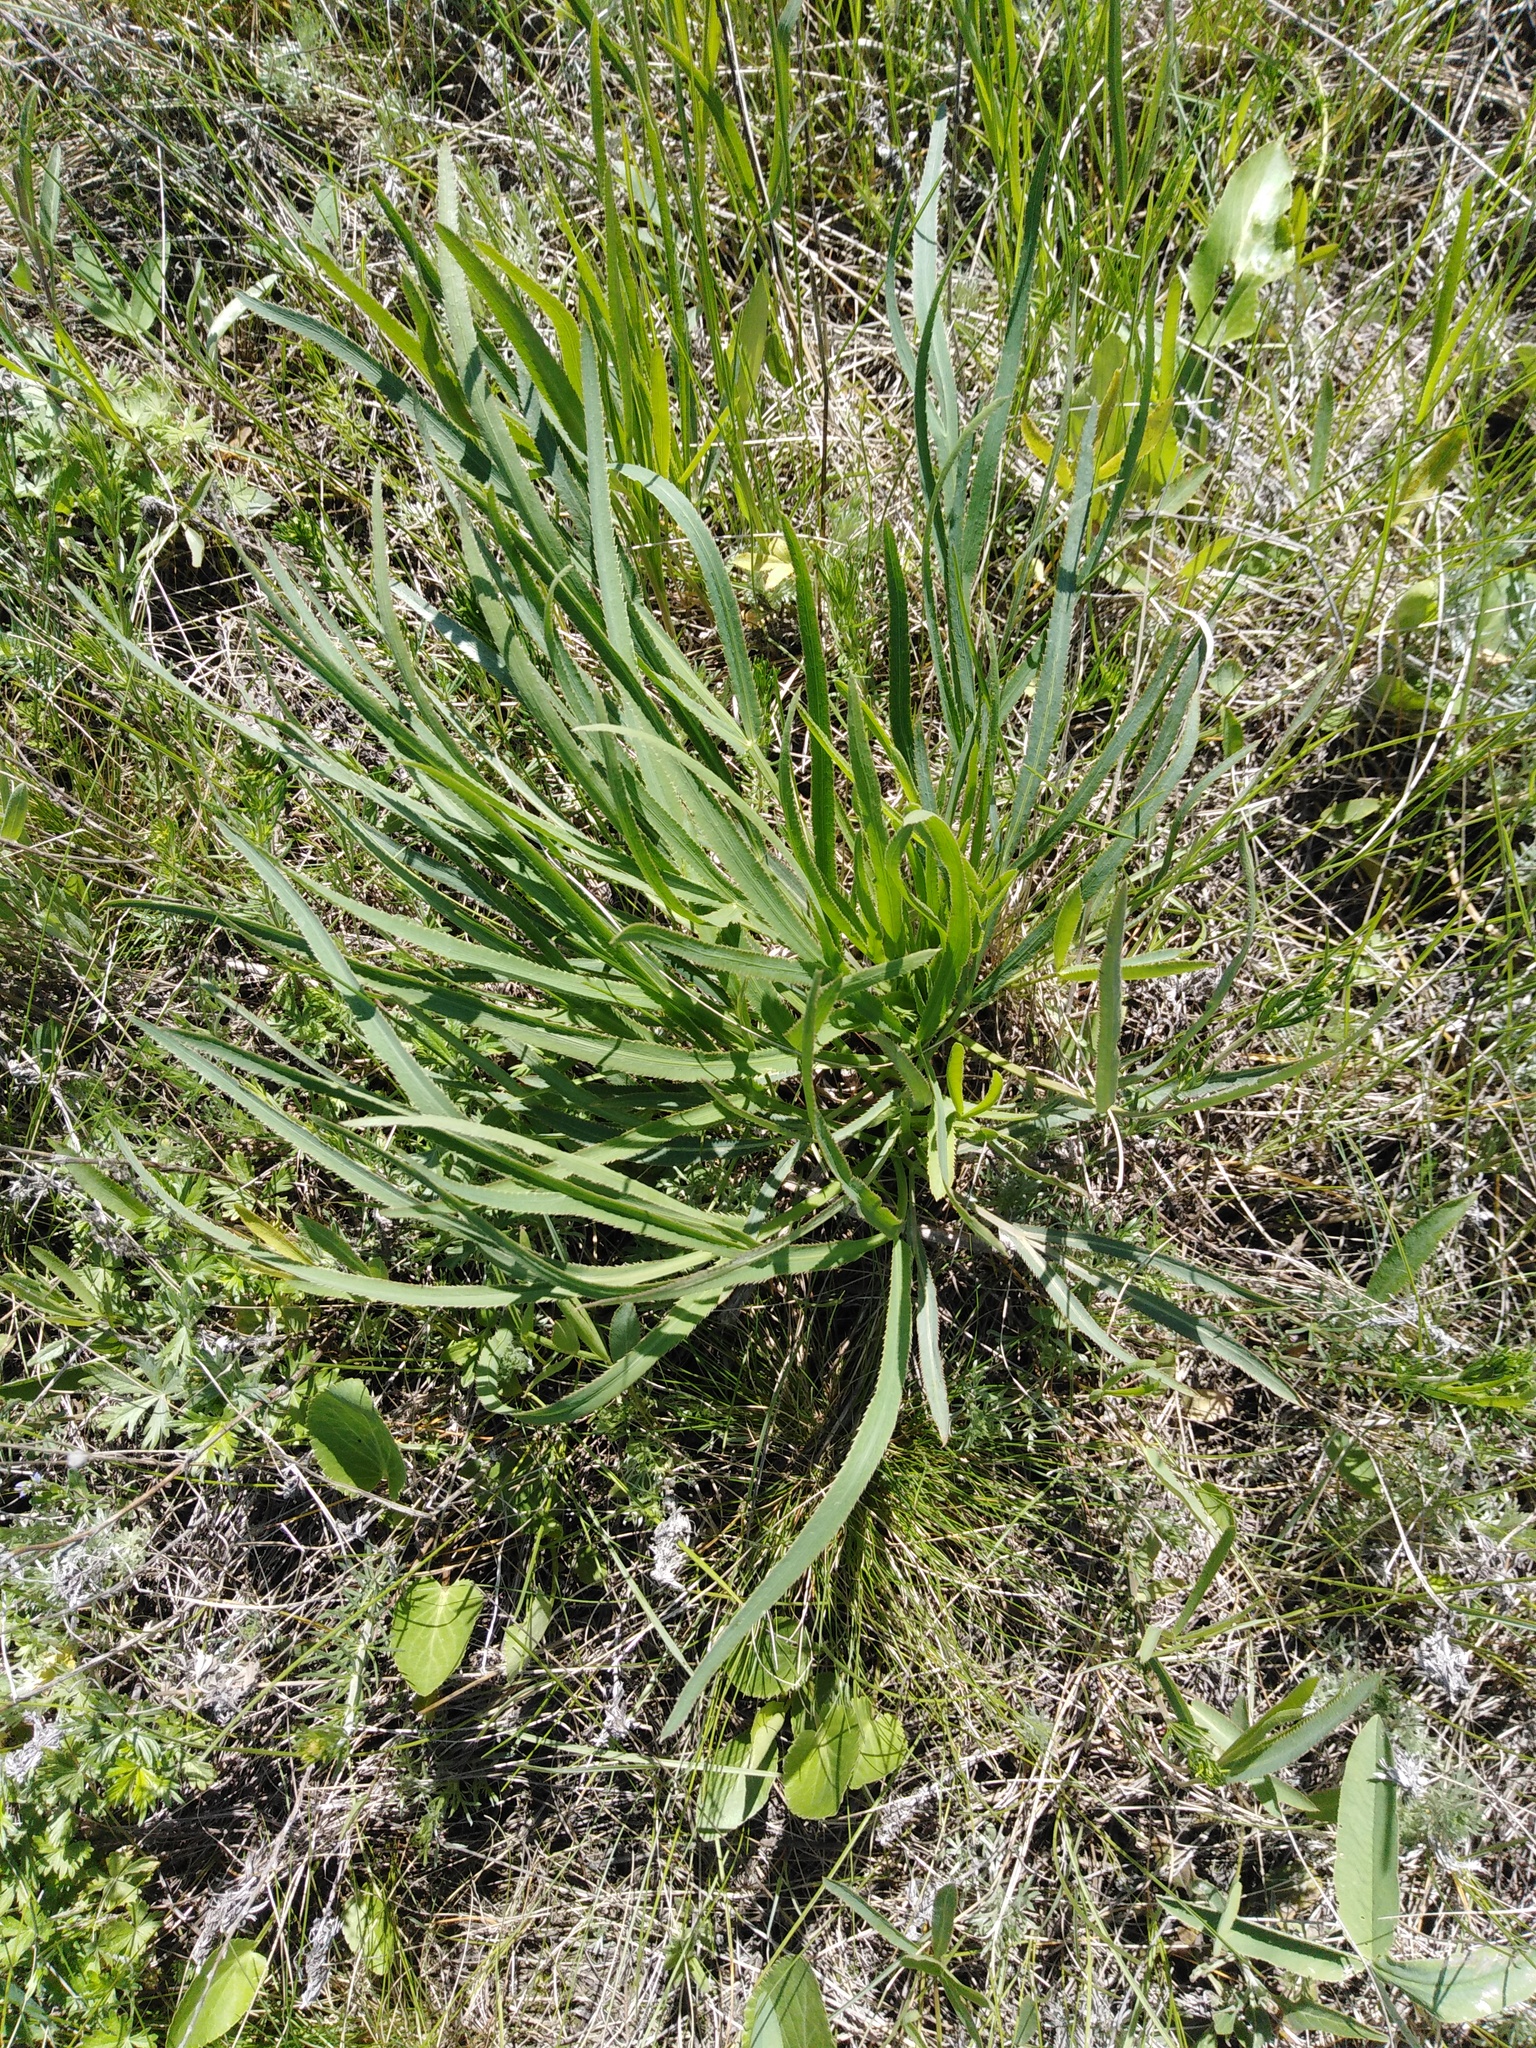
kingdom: Plantae
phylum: Tracheophyta
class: Magnoliopsida
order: Apiales
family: Apiaceae
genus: Falcaria
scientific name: Falcaria vulgaris
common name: Longleaf
